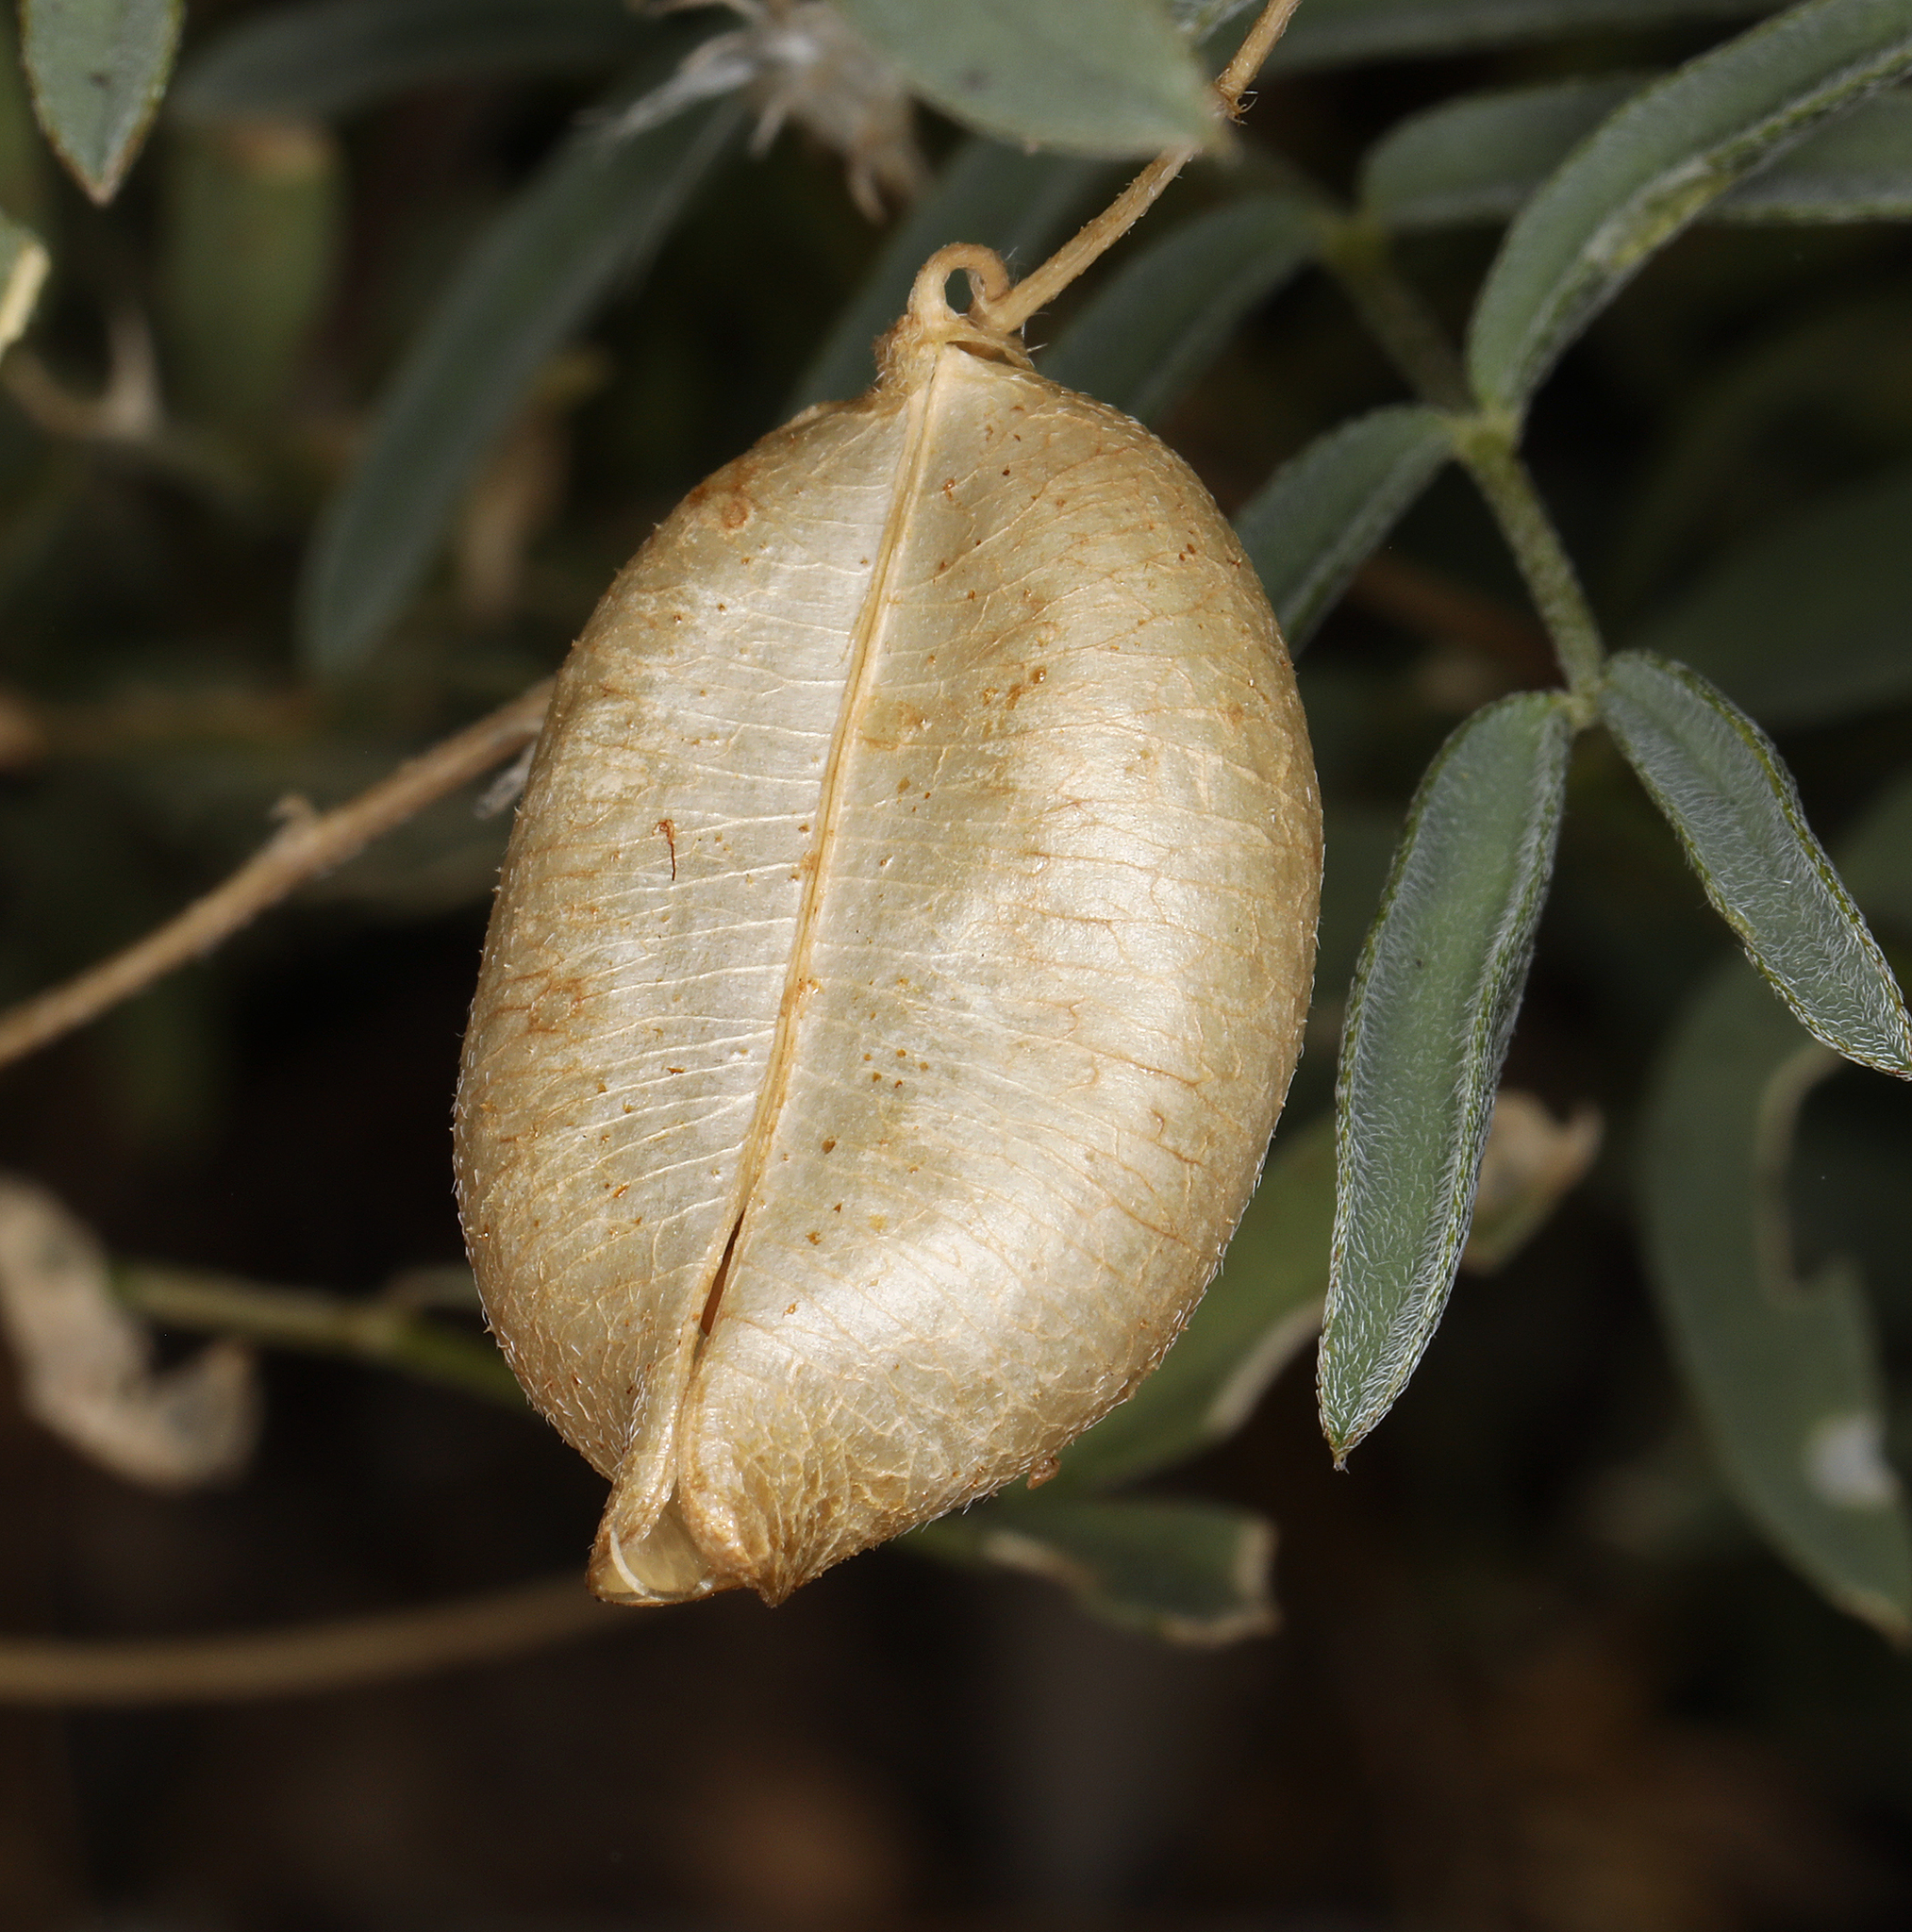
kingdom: Plantae
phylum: Tracheophyta
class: Magnoliopsida
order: Fabales
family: Fabaceae
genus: Astragalus
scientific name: Astragalus nutans
